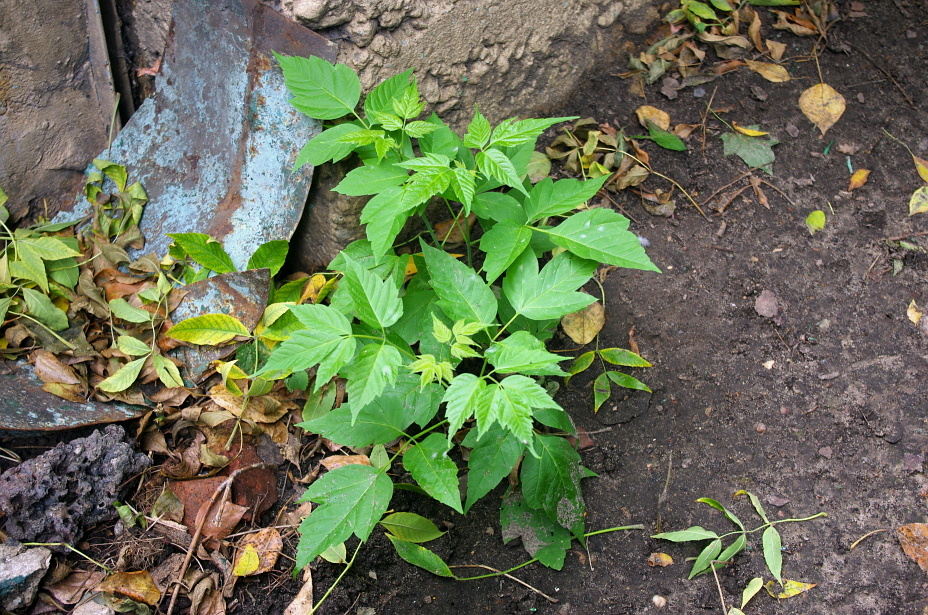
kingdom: Plantae
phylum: Tracheophyta
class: Magnoliopsida
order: Sapindales
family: Sapindaceae
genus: Acer
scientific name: Acer negundo
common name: Ashleaf maple
